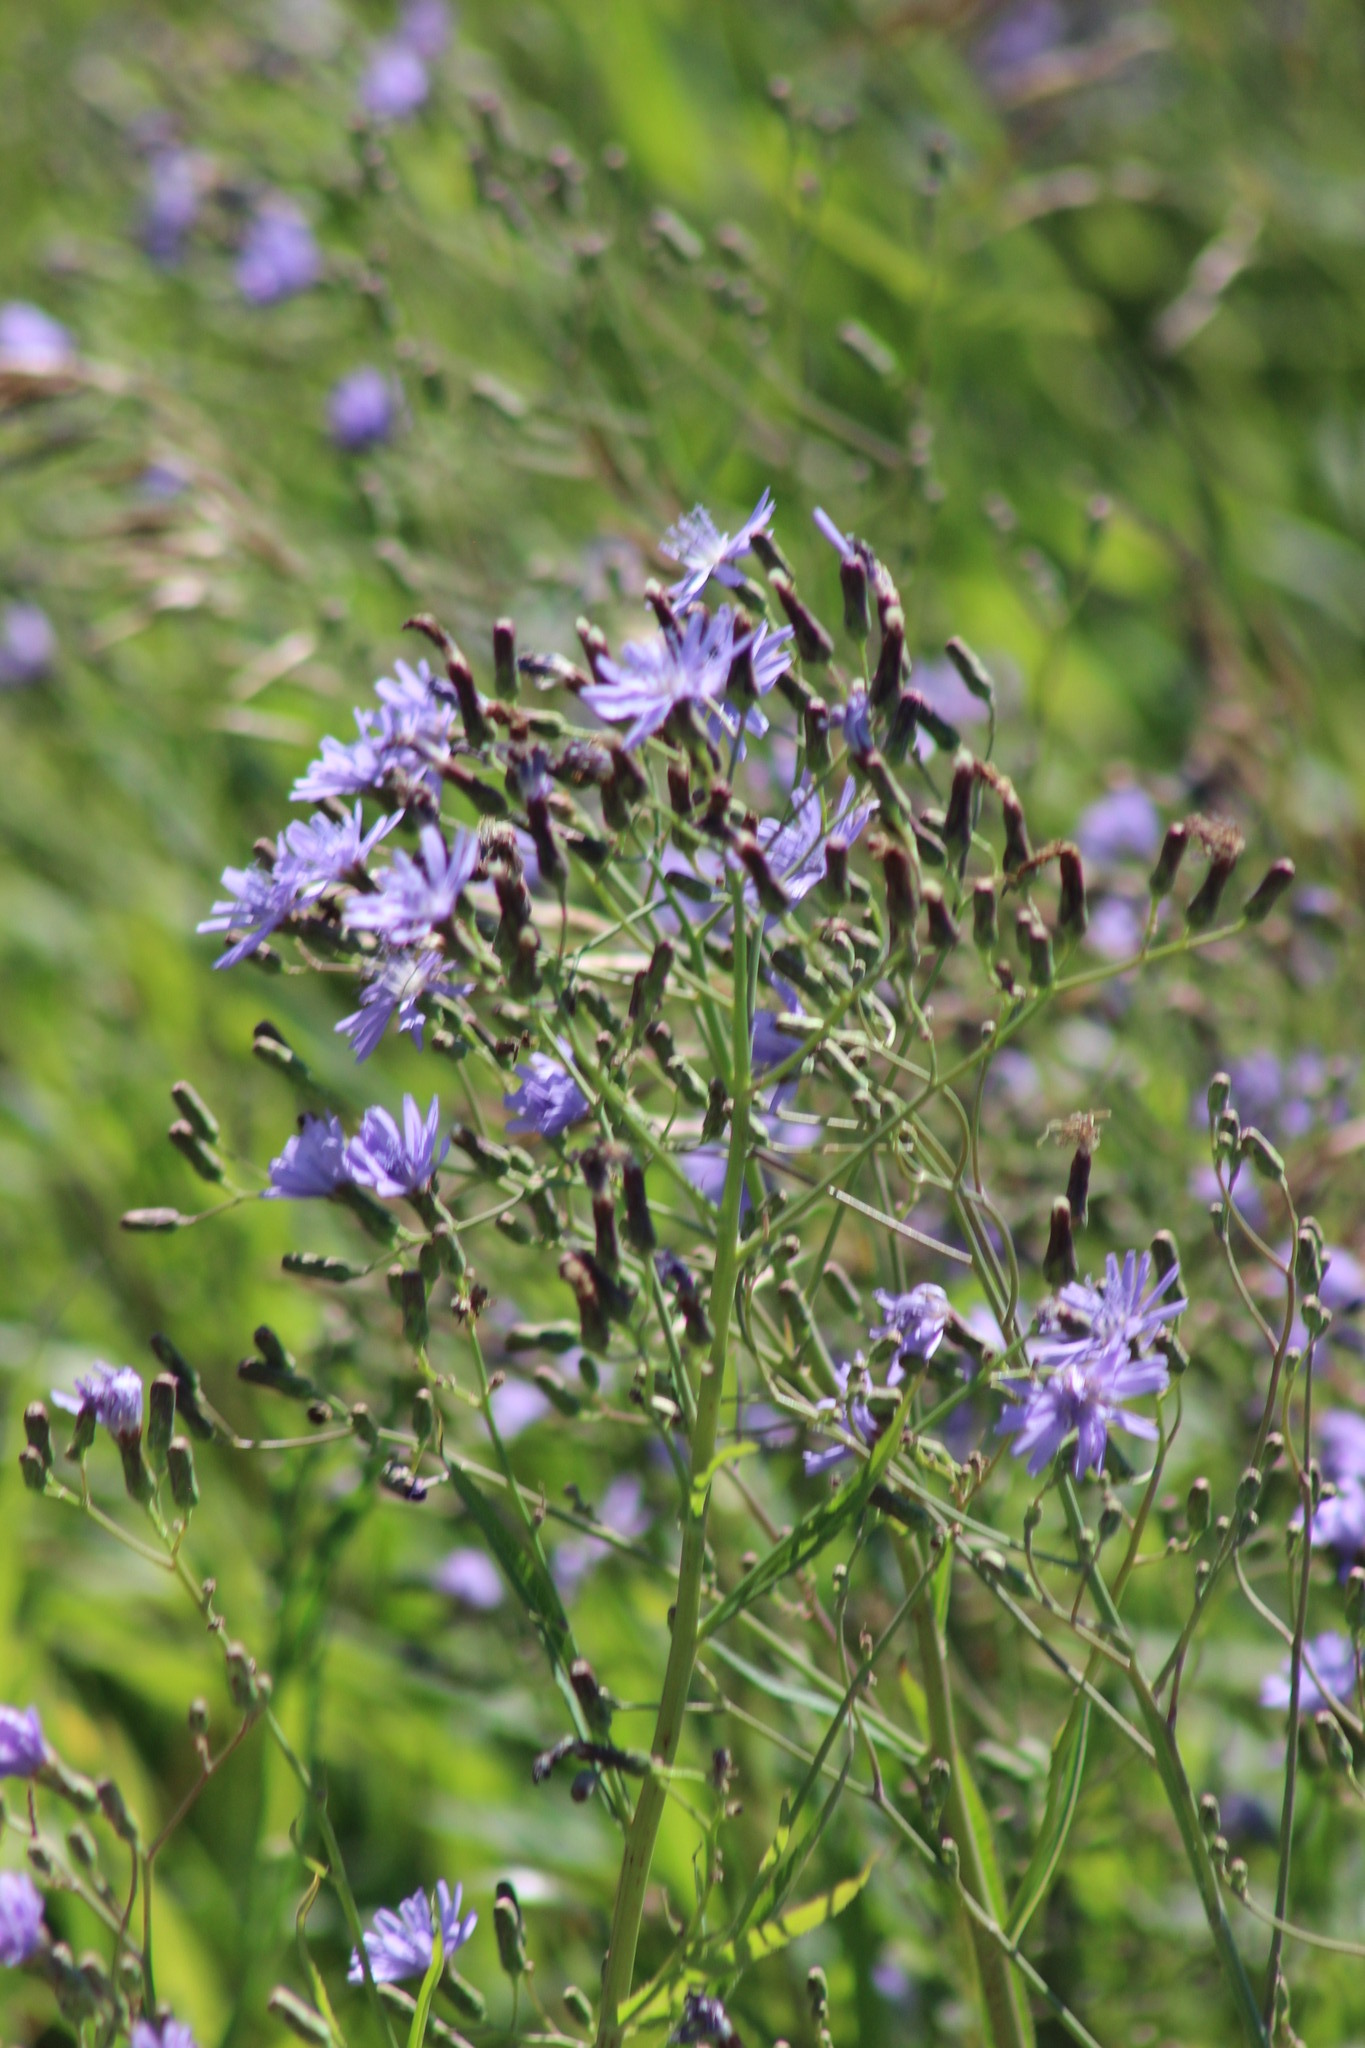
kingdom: Plantae
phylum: Tracheophyta
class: Magnoliopsida
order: Asterales
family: Asteraceae
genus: Lactuca
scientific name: Lactuca sibirica
